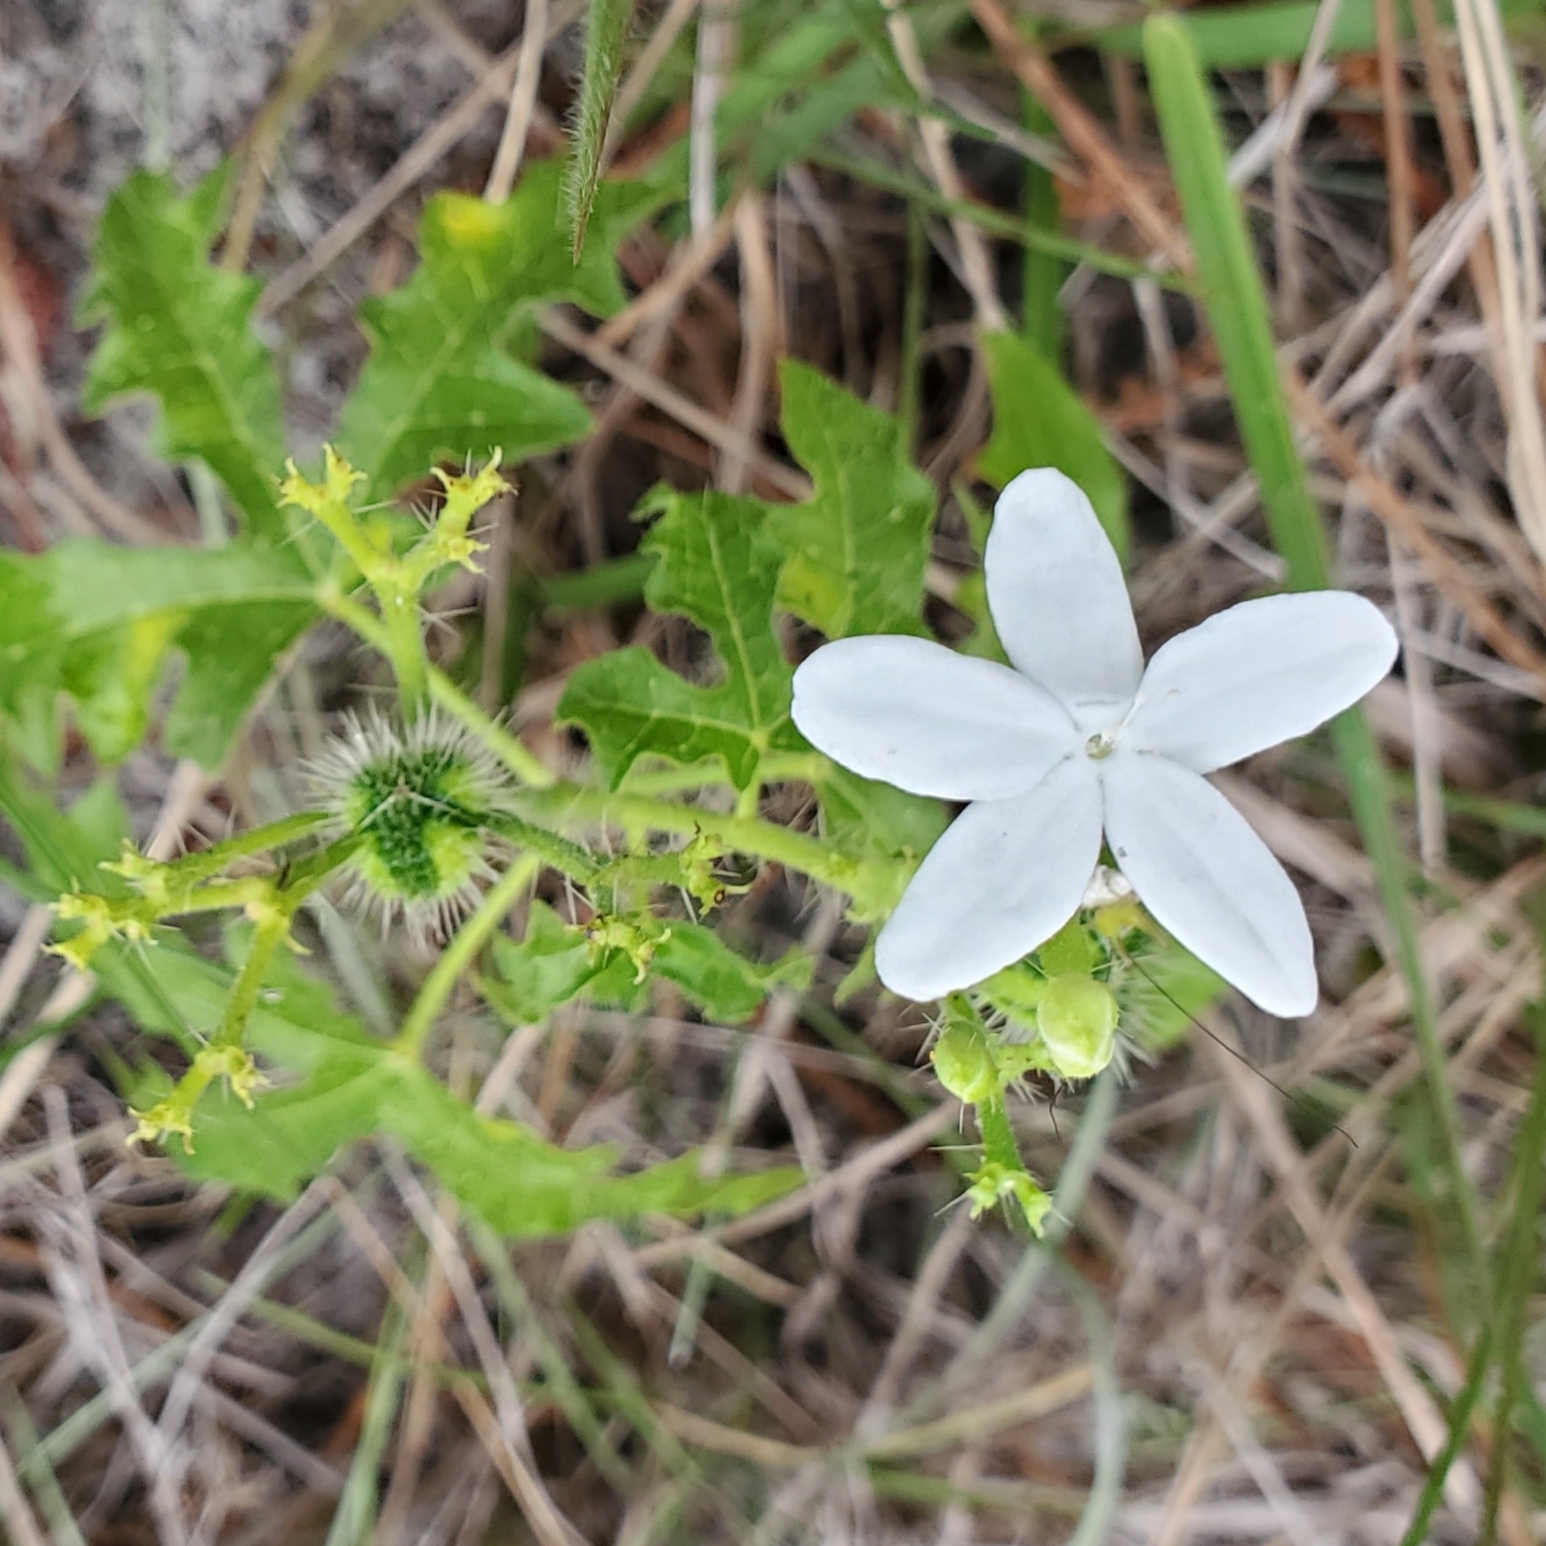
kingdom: Plantae
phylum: Tracheophyta
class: Magnoliopsida
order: Malpighiales
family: Euphorbiaceae
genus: Cnidoscolus
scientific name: Cnidoscolus stimulosus
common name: Bull-nettle
